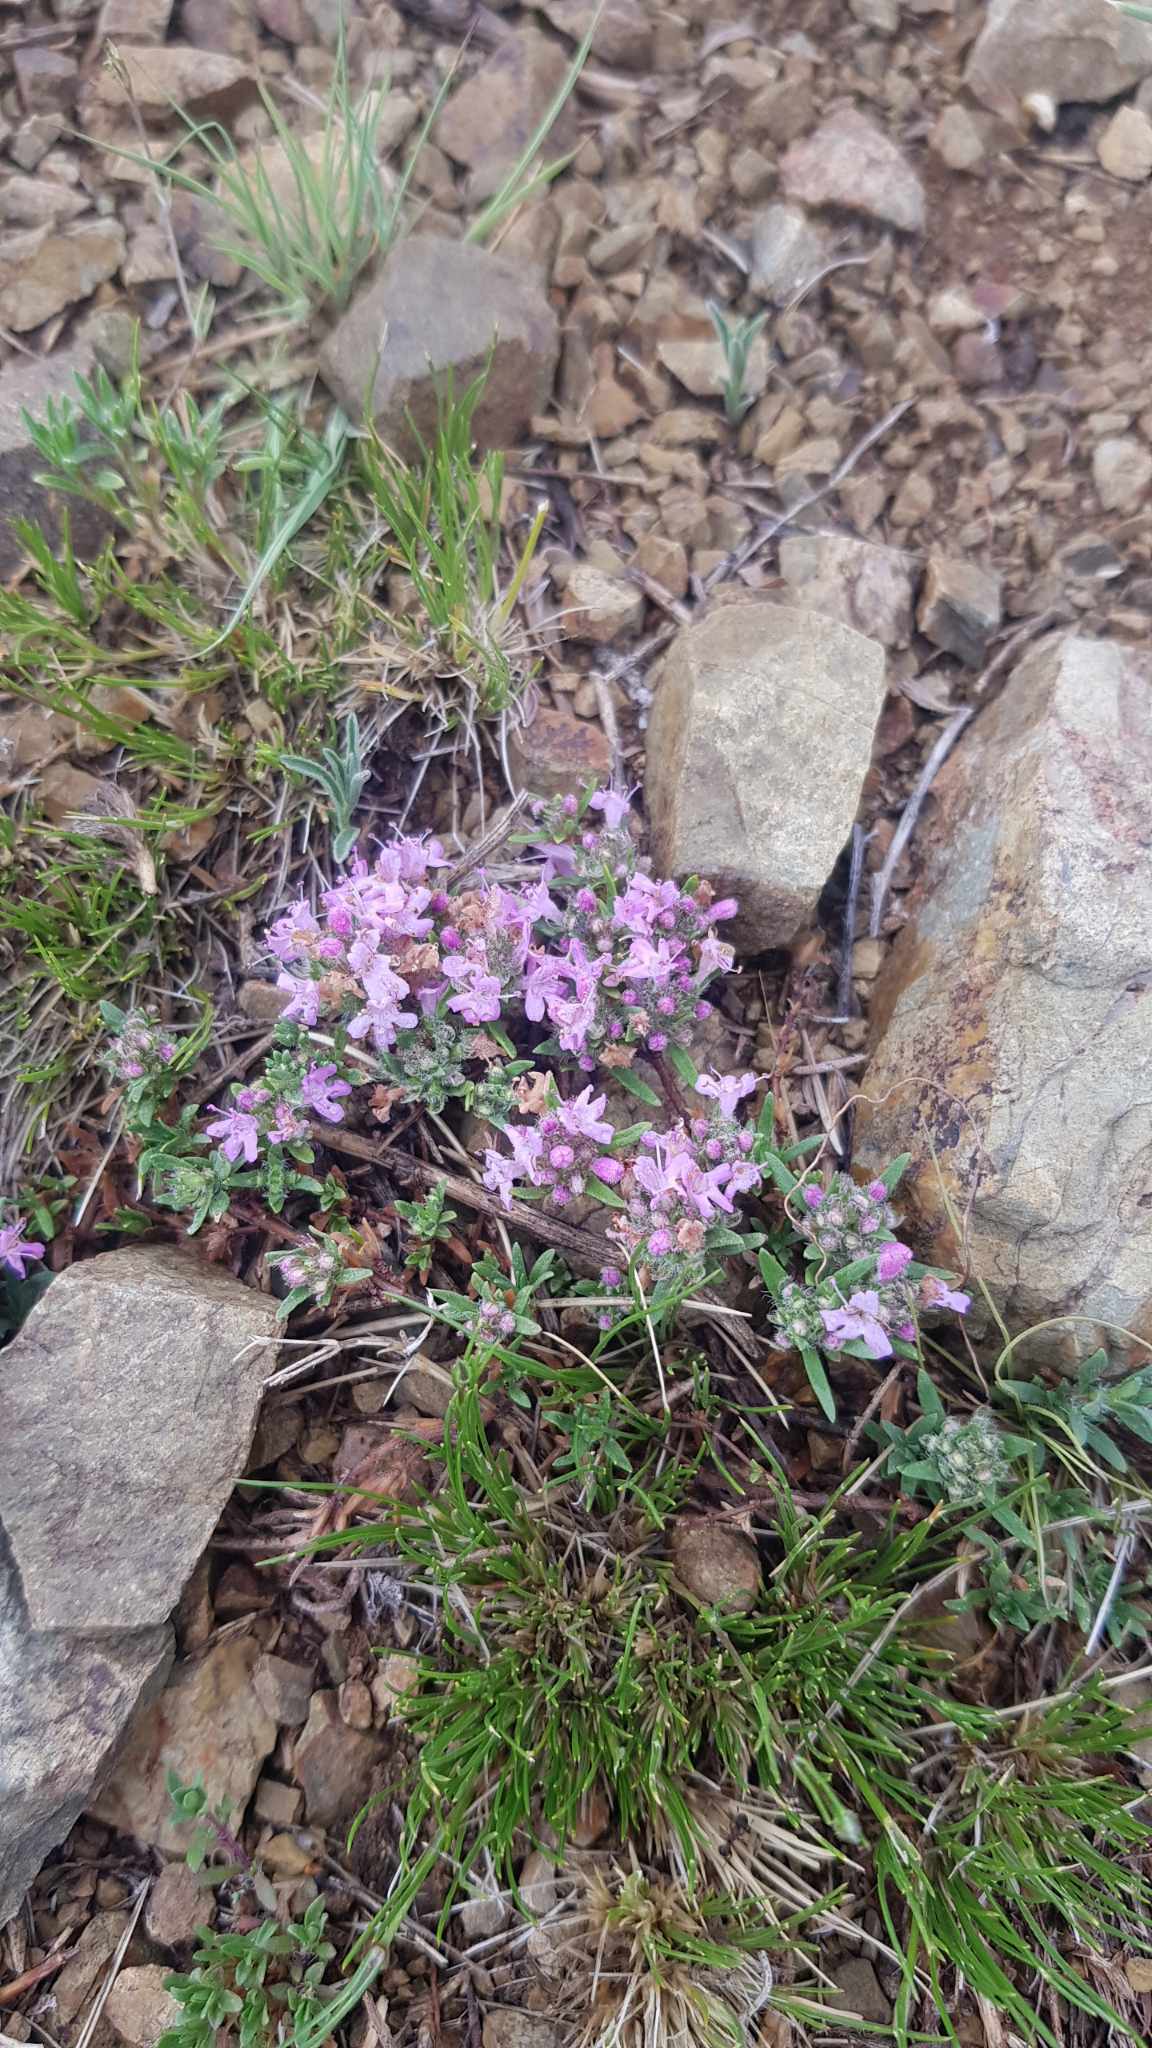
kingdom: Plantae
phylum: Tracheophyta
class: Magnoliopsida
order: Lamiales
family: Lamiaceae
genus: Thymus
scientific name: Thymus gobicus
